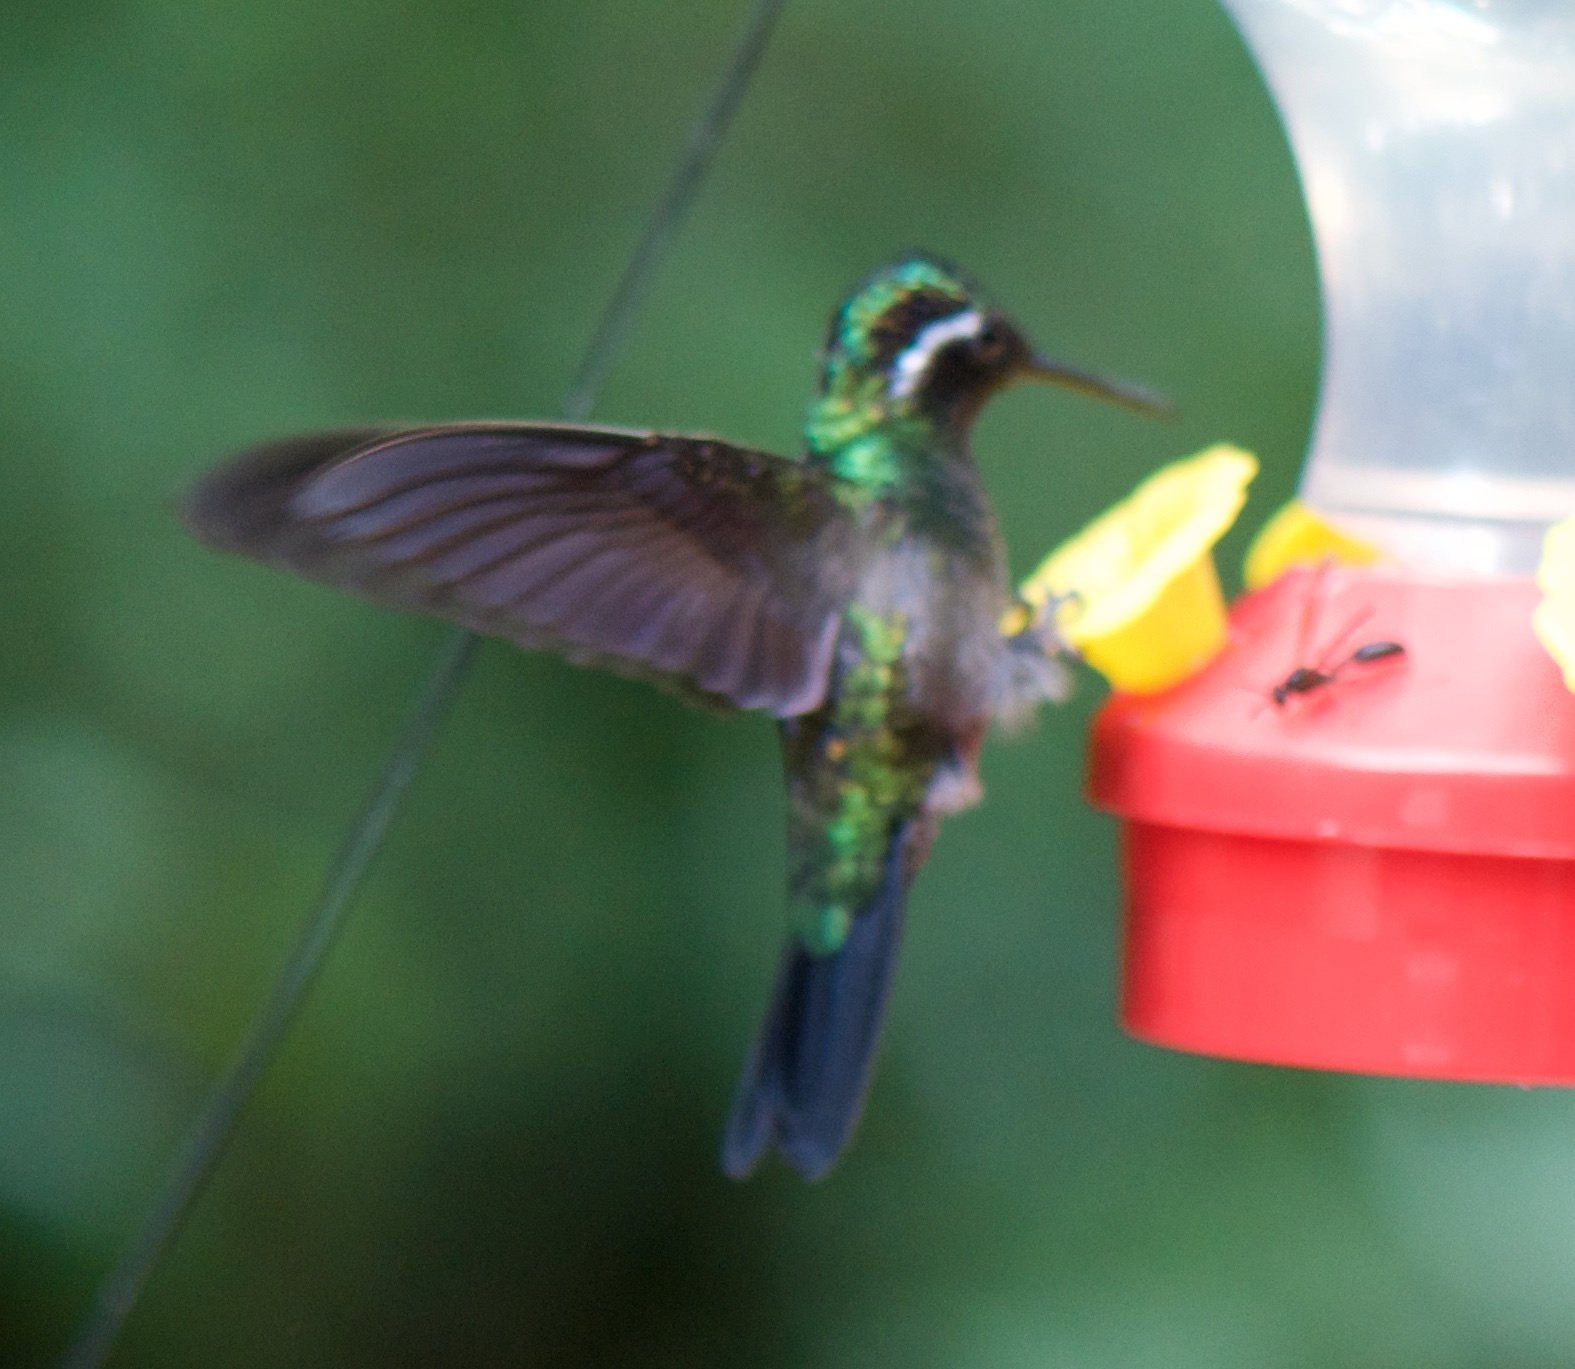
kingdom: Animalia
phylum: Chordata
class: Aves
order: Apodiformes
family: Trochilidae
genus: Lampornis
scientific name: Lampornis calolaemus
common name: Purple-throated mountain-gem
